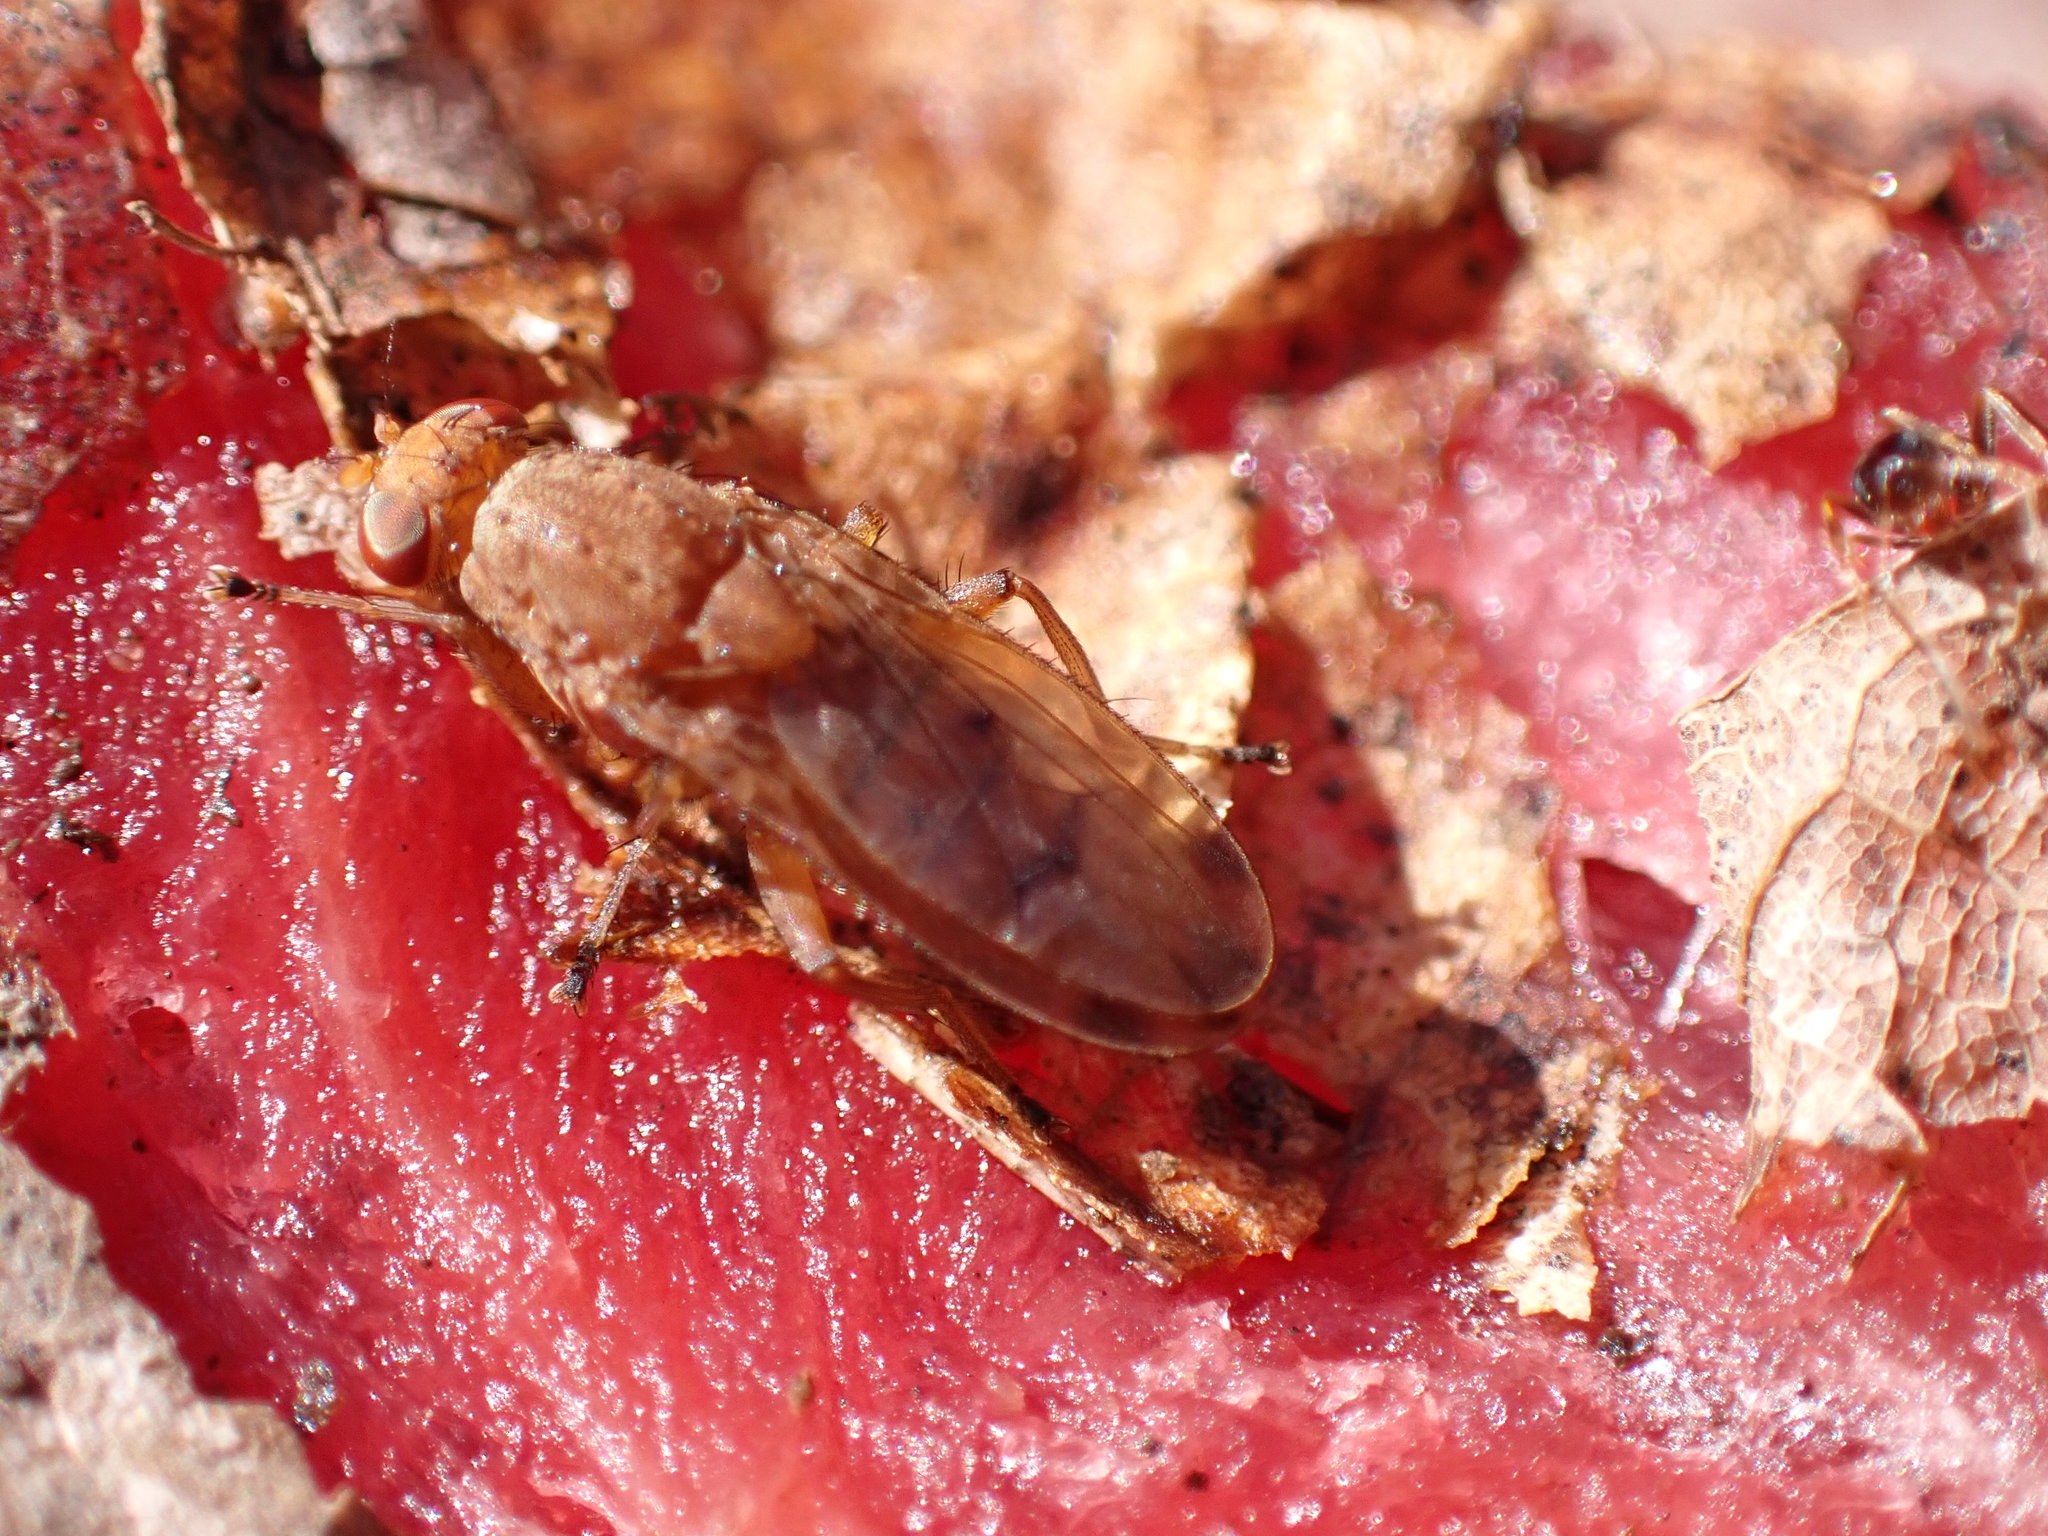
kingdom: Animalia
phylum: Arthropoda
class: Insecta
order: Diptera
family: Heleomyzidae
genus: Suillia
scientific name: Suillia quinquepunctata
